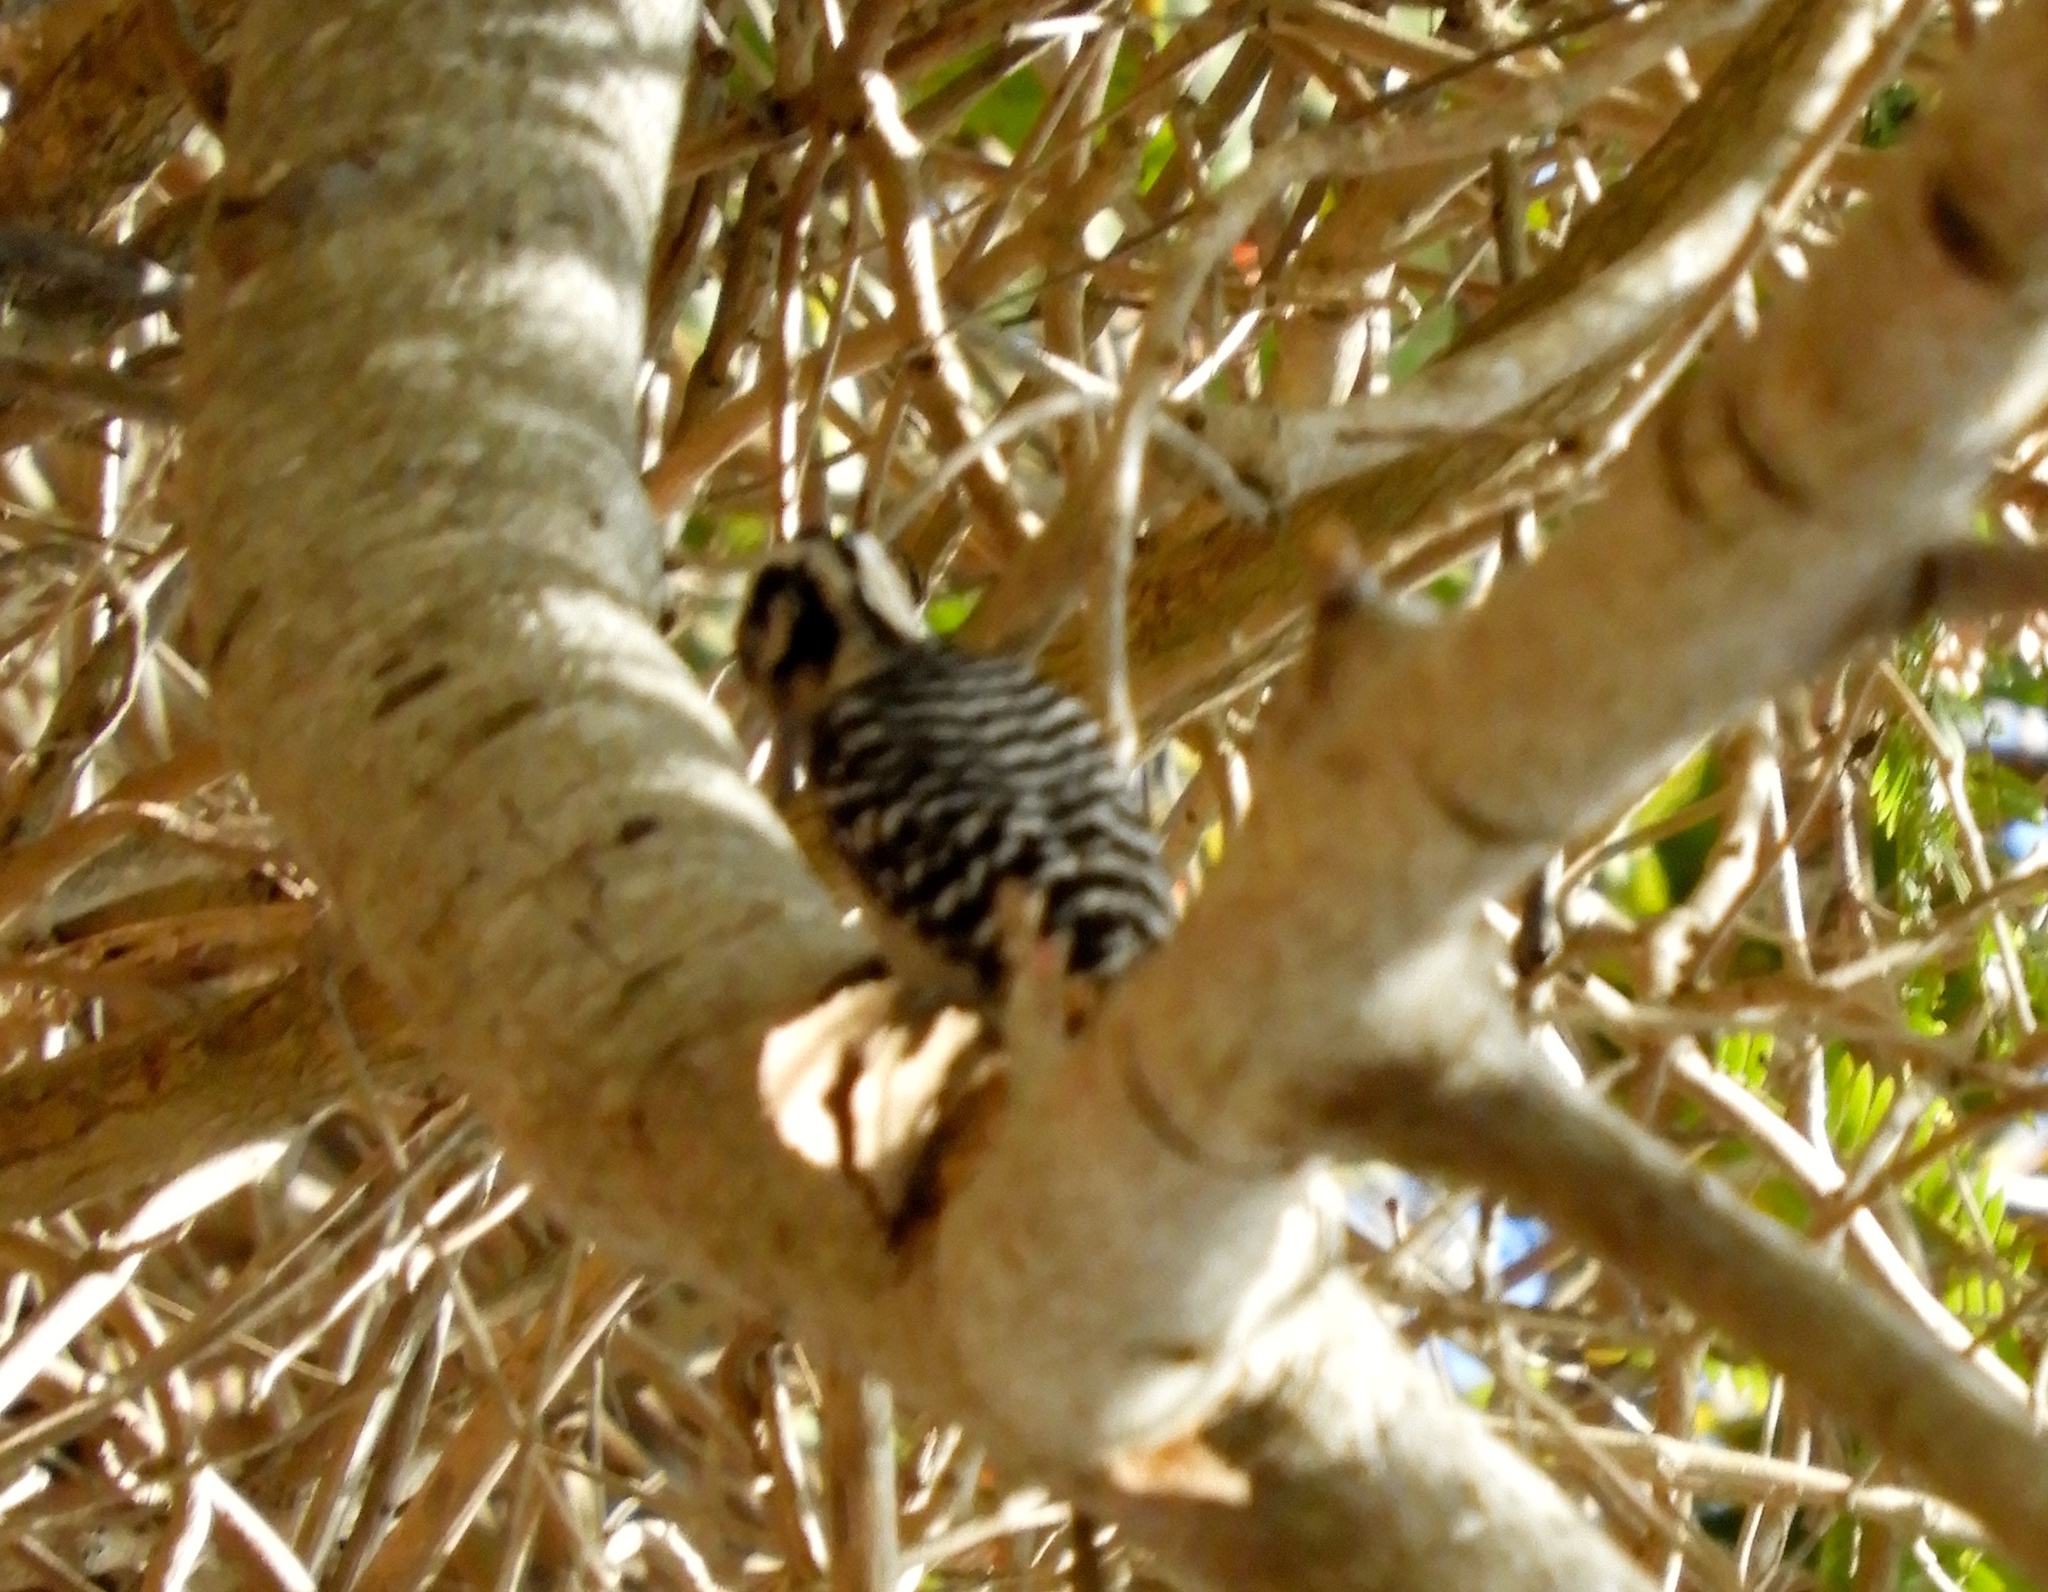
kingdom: Animalia
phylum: Chordata
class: Aves
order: Piciformes
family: Picidae
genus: Dryobates
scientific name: Dryobates scalaris
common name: Ladder-backed woodpecker
